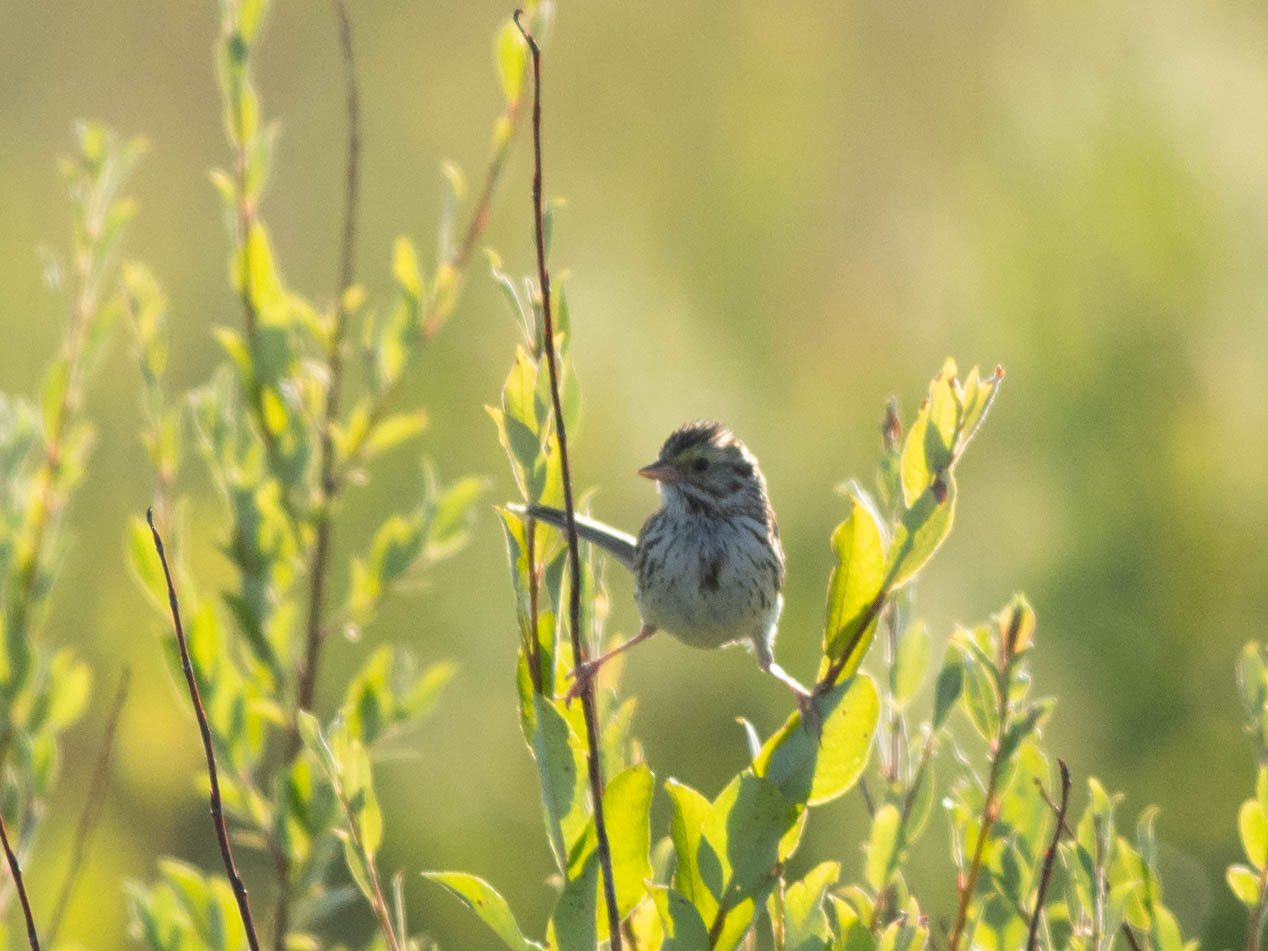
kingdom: Animalia
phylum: Chordata
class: Aves
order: Passeriformes
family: Passerellidae
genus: Passerculus
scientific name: Passerculus sandwichensis
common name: Savannah sparrow
